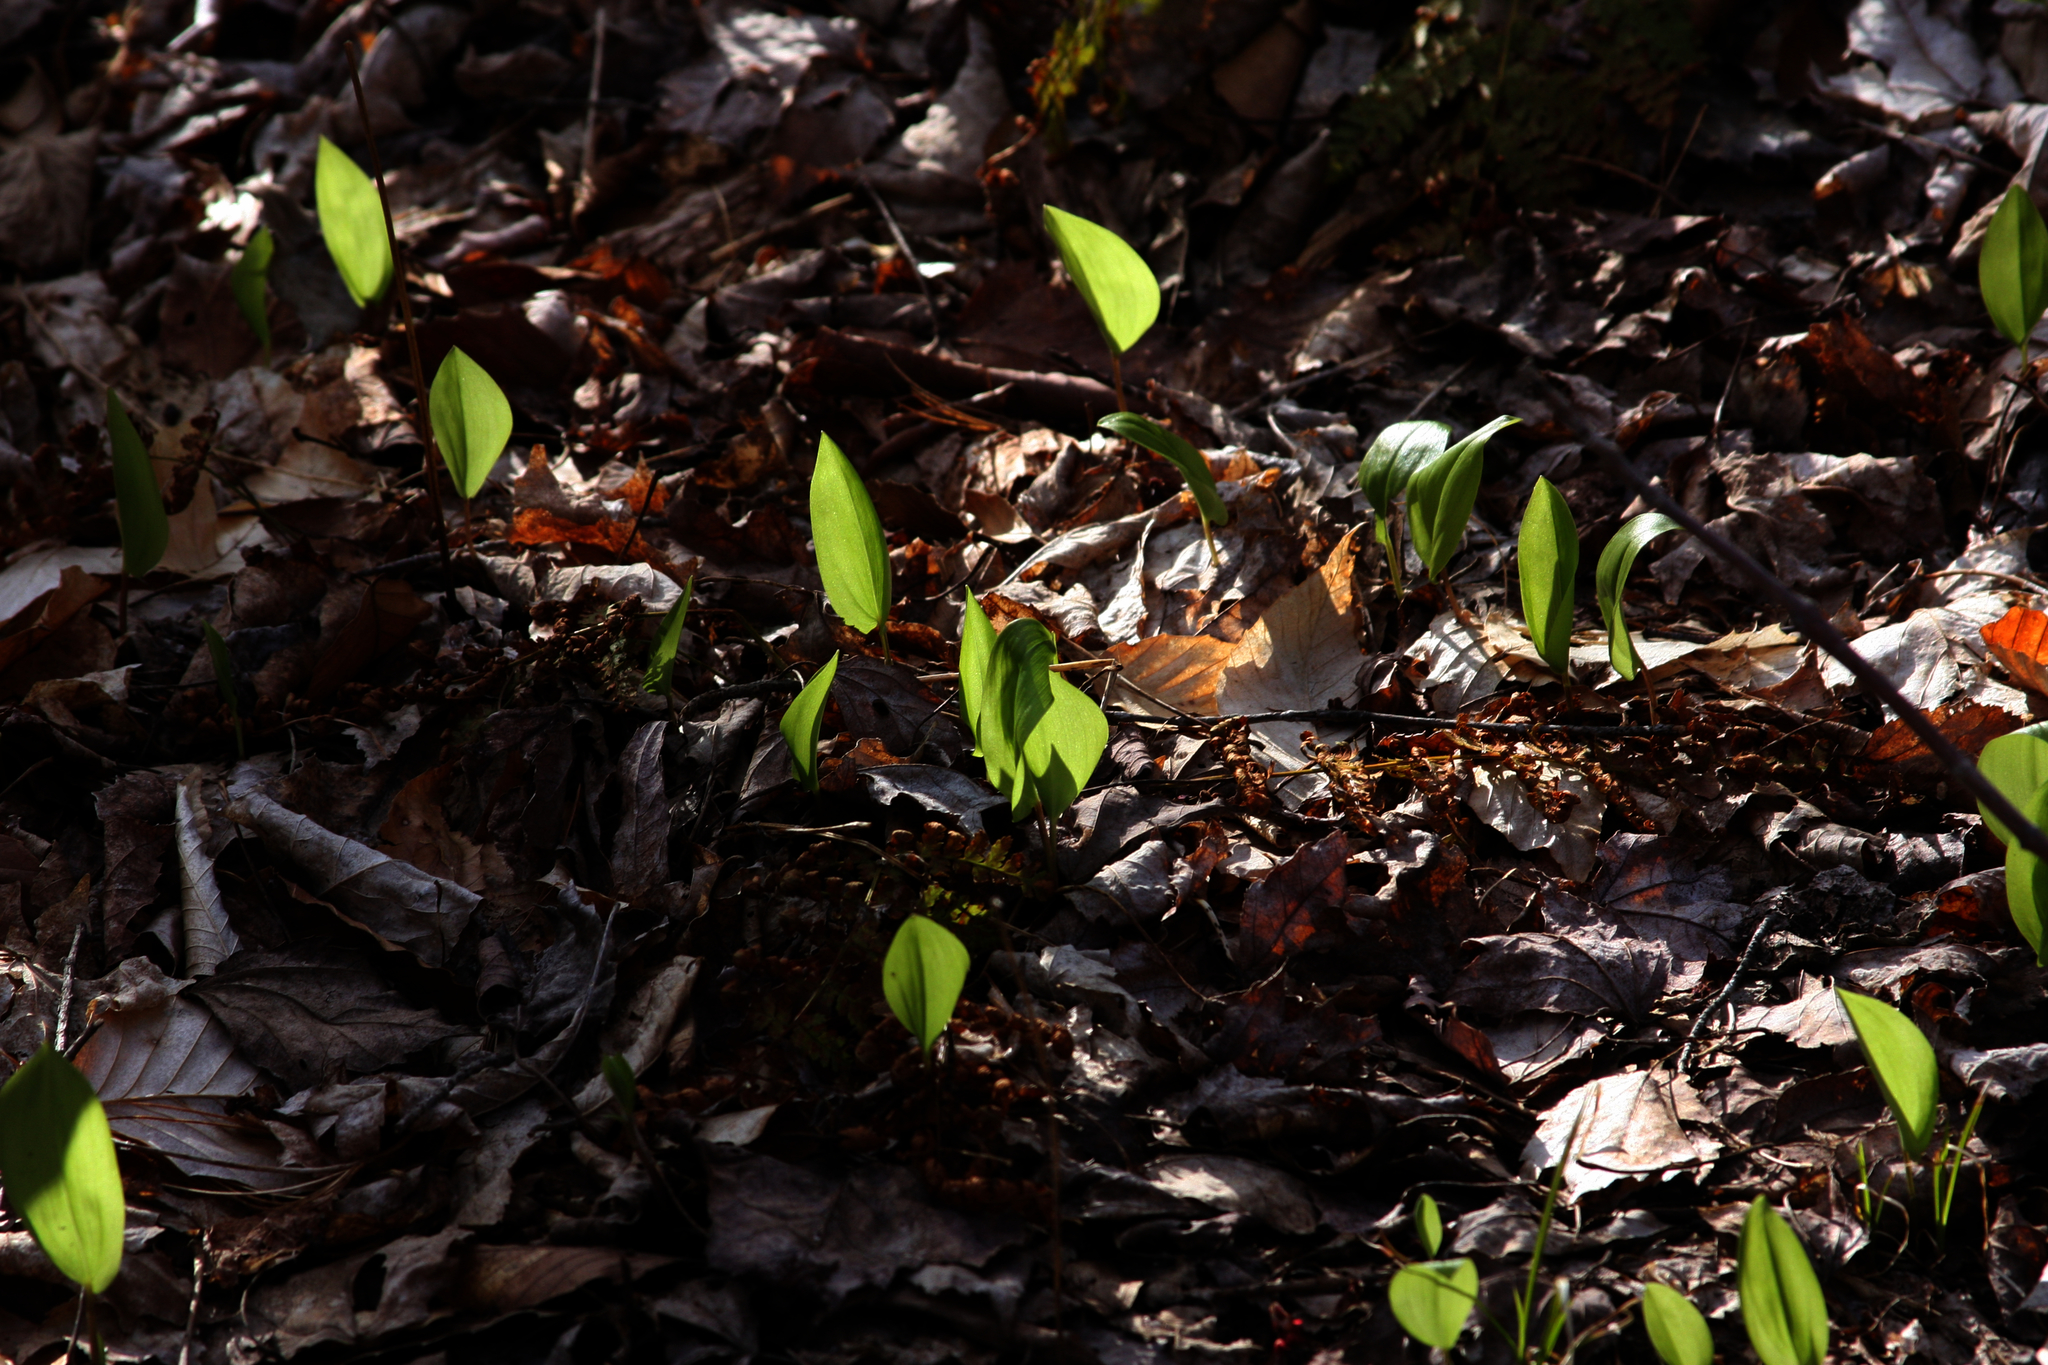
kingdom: Plantae
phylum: Tracheophyta
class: Liliopsida
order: Asparagales
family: Asparagaceae
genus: Maianthemum
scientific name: Maianthemum canadense
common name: False lily-of-the-valley
